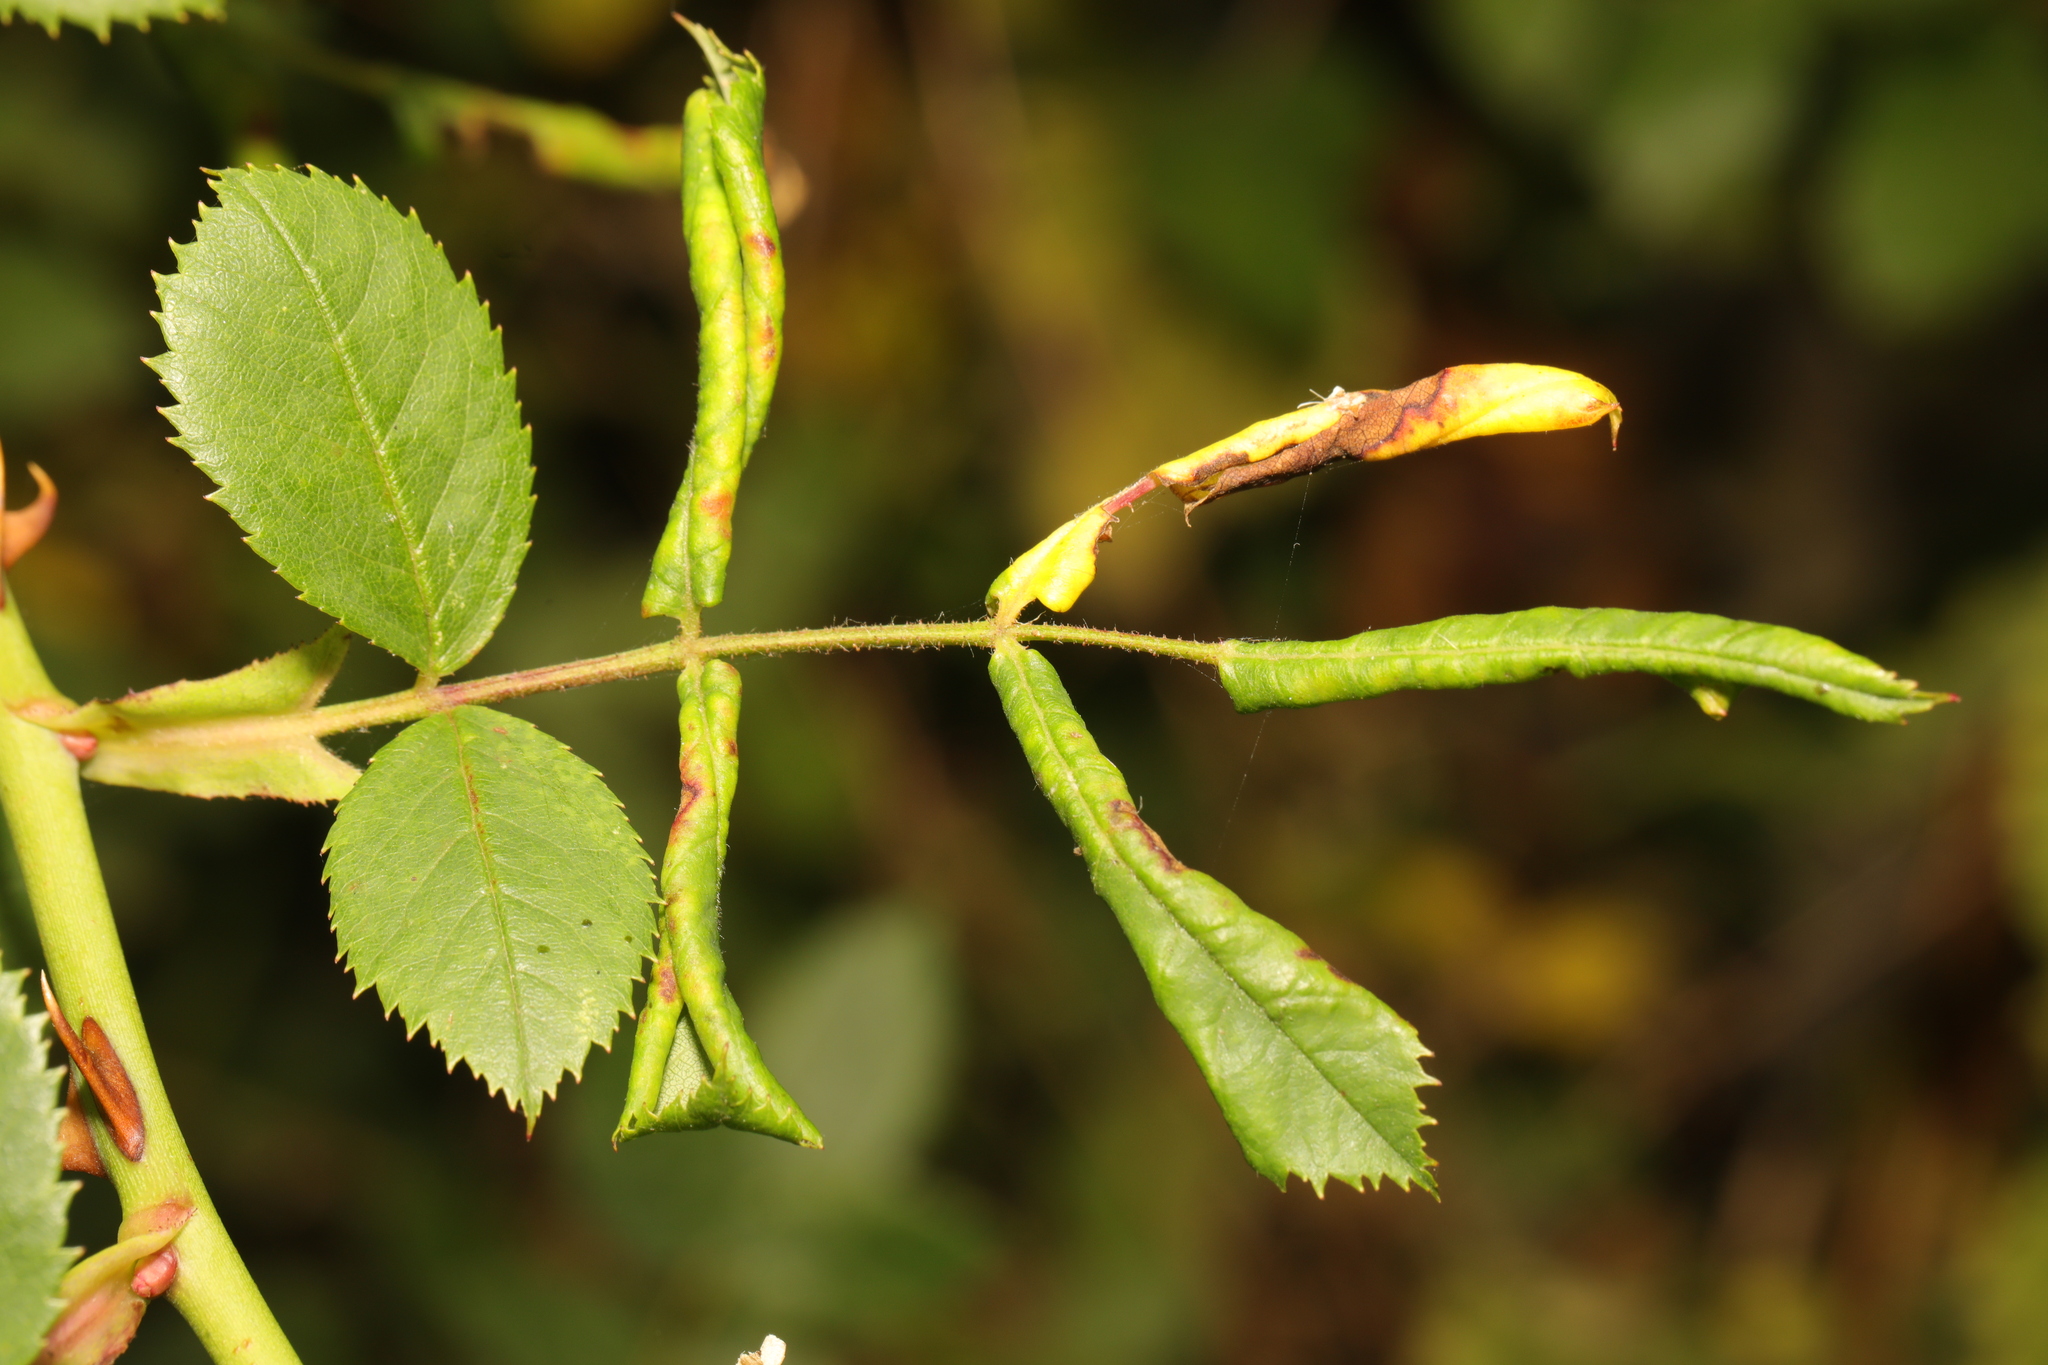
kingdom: Animalia
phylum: Arthropoda
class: Insecta
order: Hymenoptera
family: Tenthredinidae
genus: Blennocampa
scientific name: Blennocampa phyllocolpa
